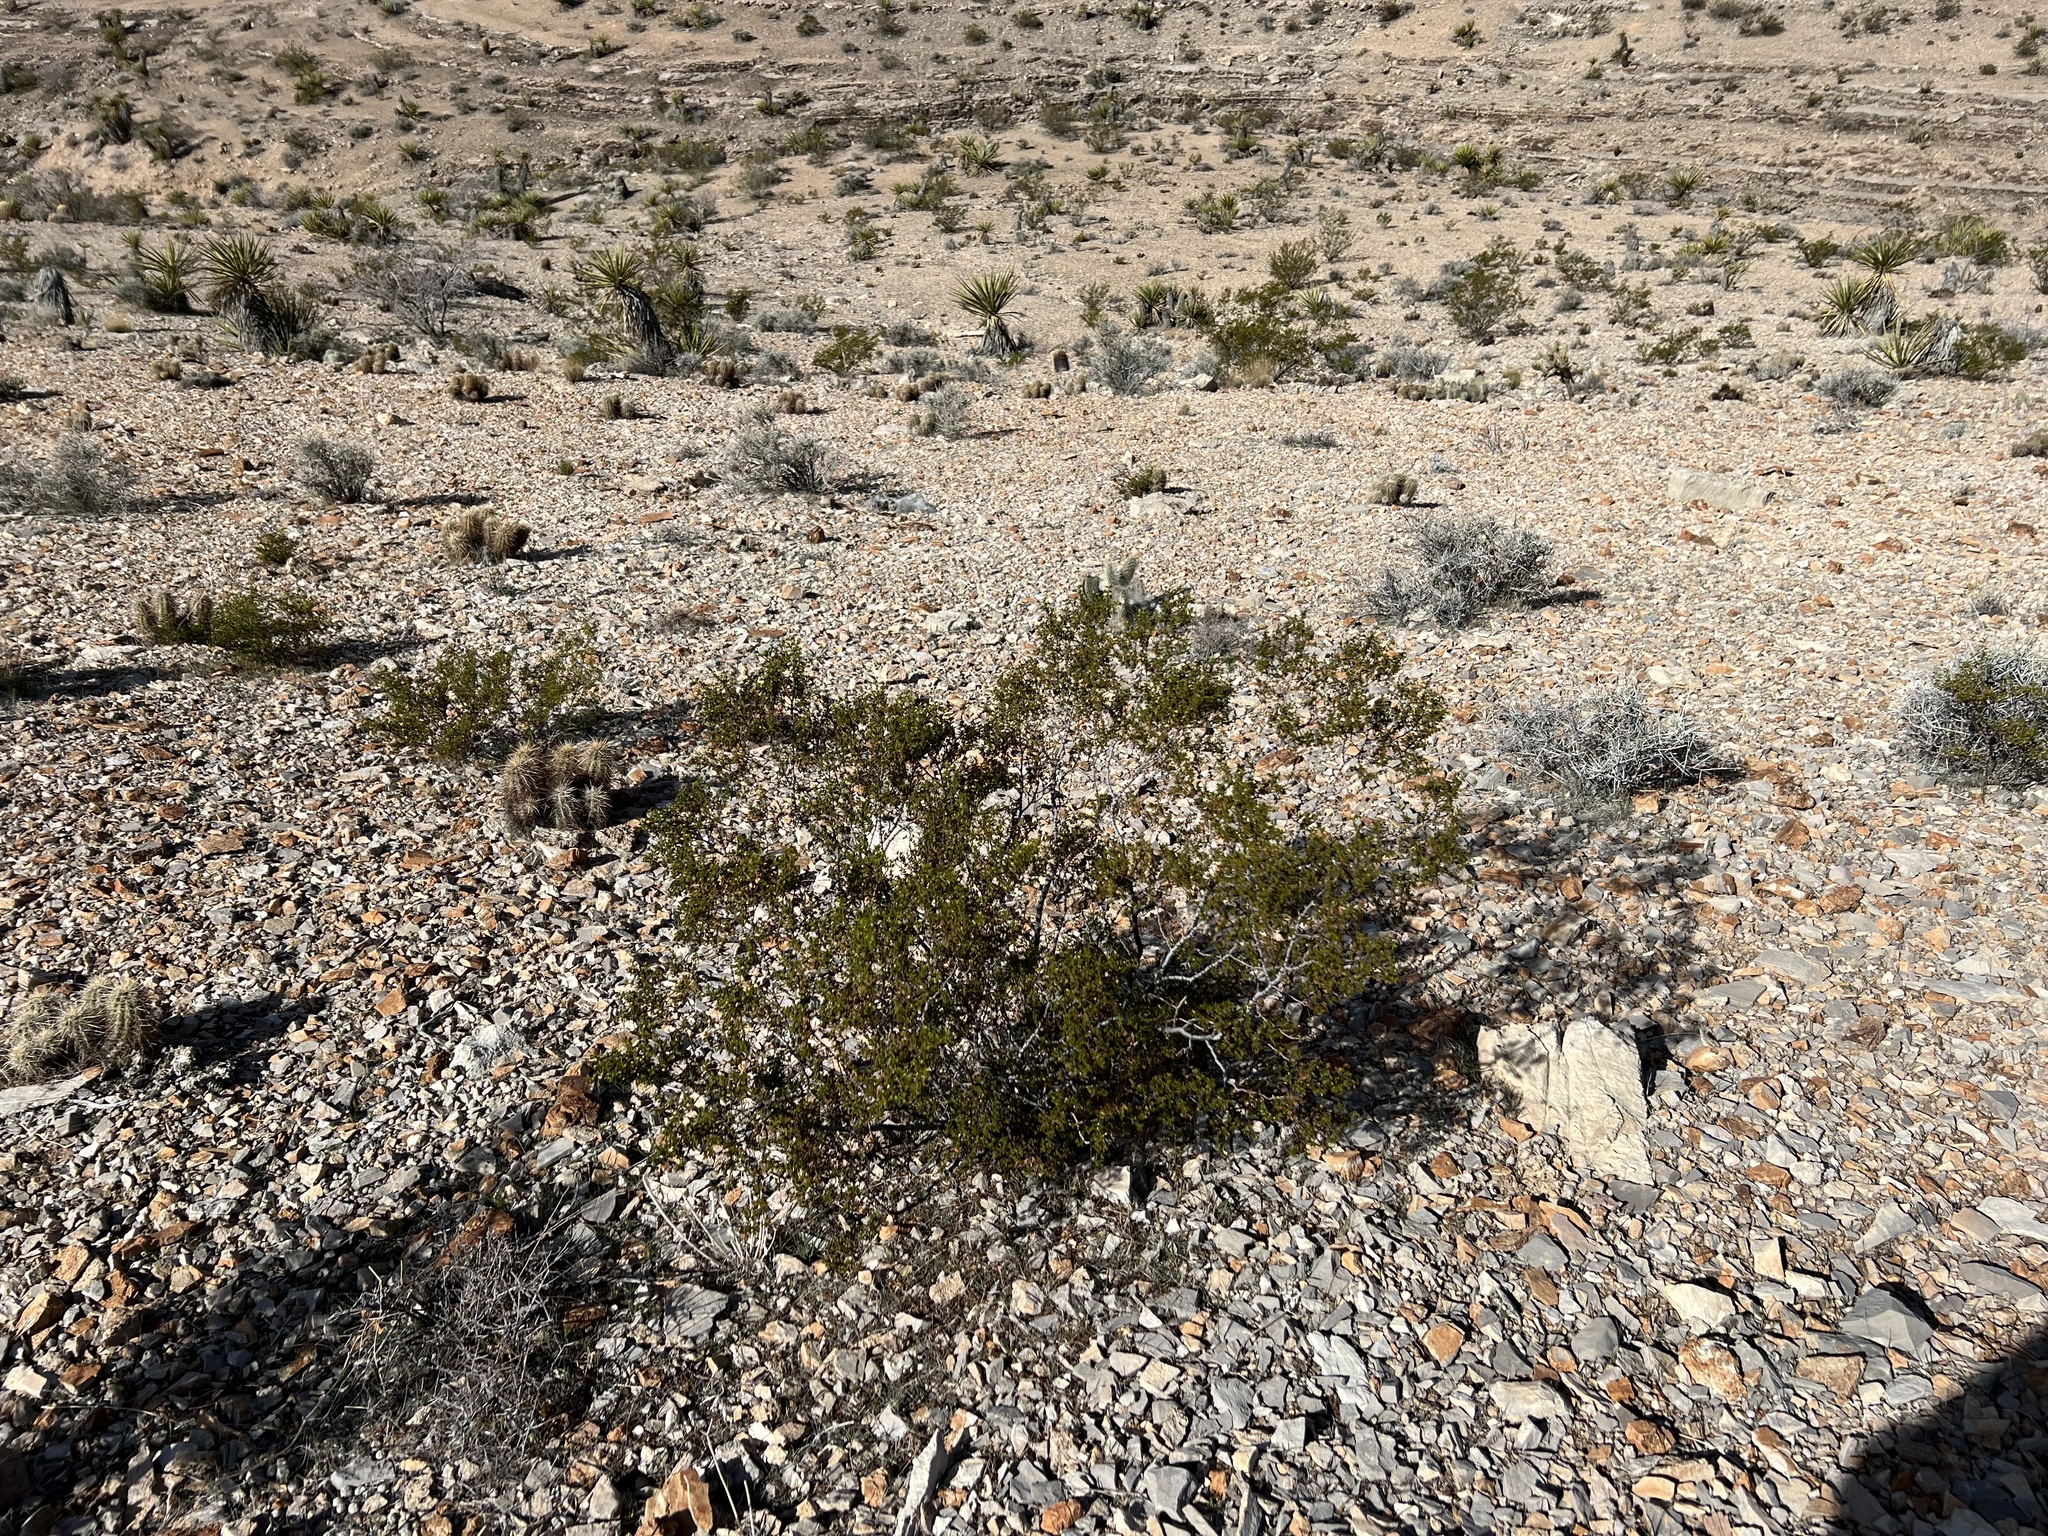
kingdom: Plantae
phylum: Tracheophyta
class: Magnoliopsida
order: Zygophyllales
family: Zygophyllaceae
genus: Larrea
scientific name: Larrea tridentata
